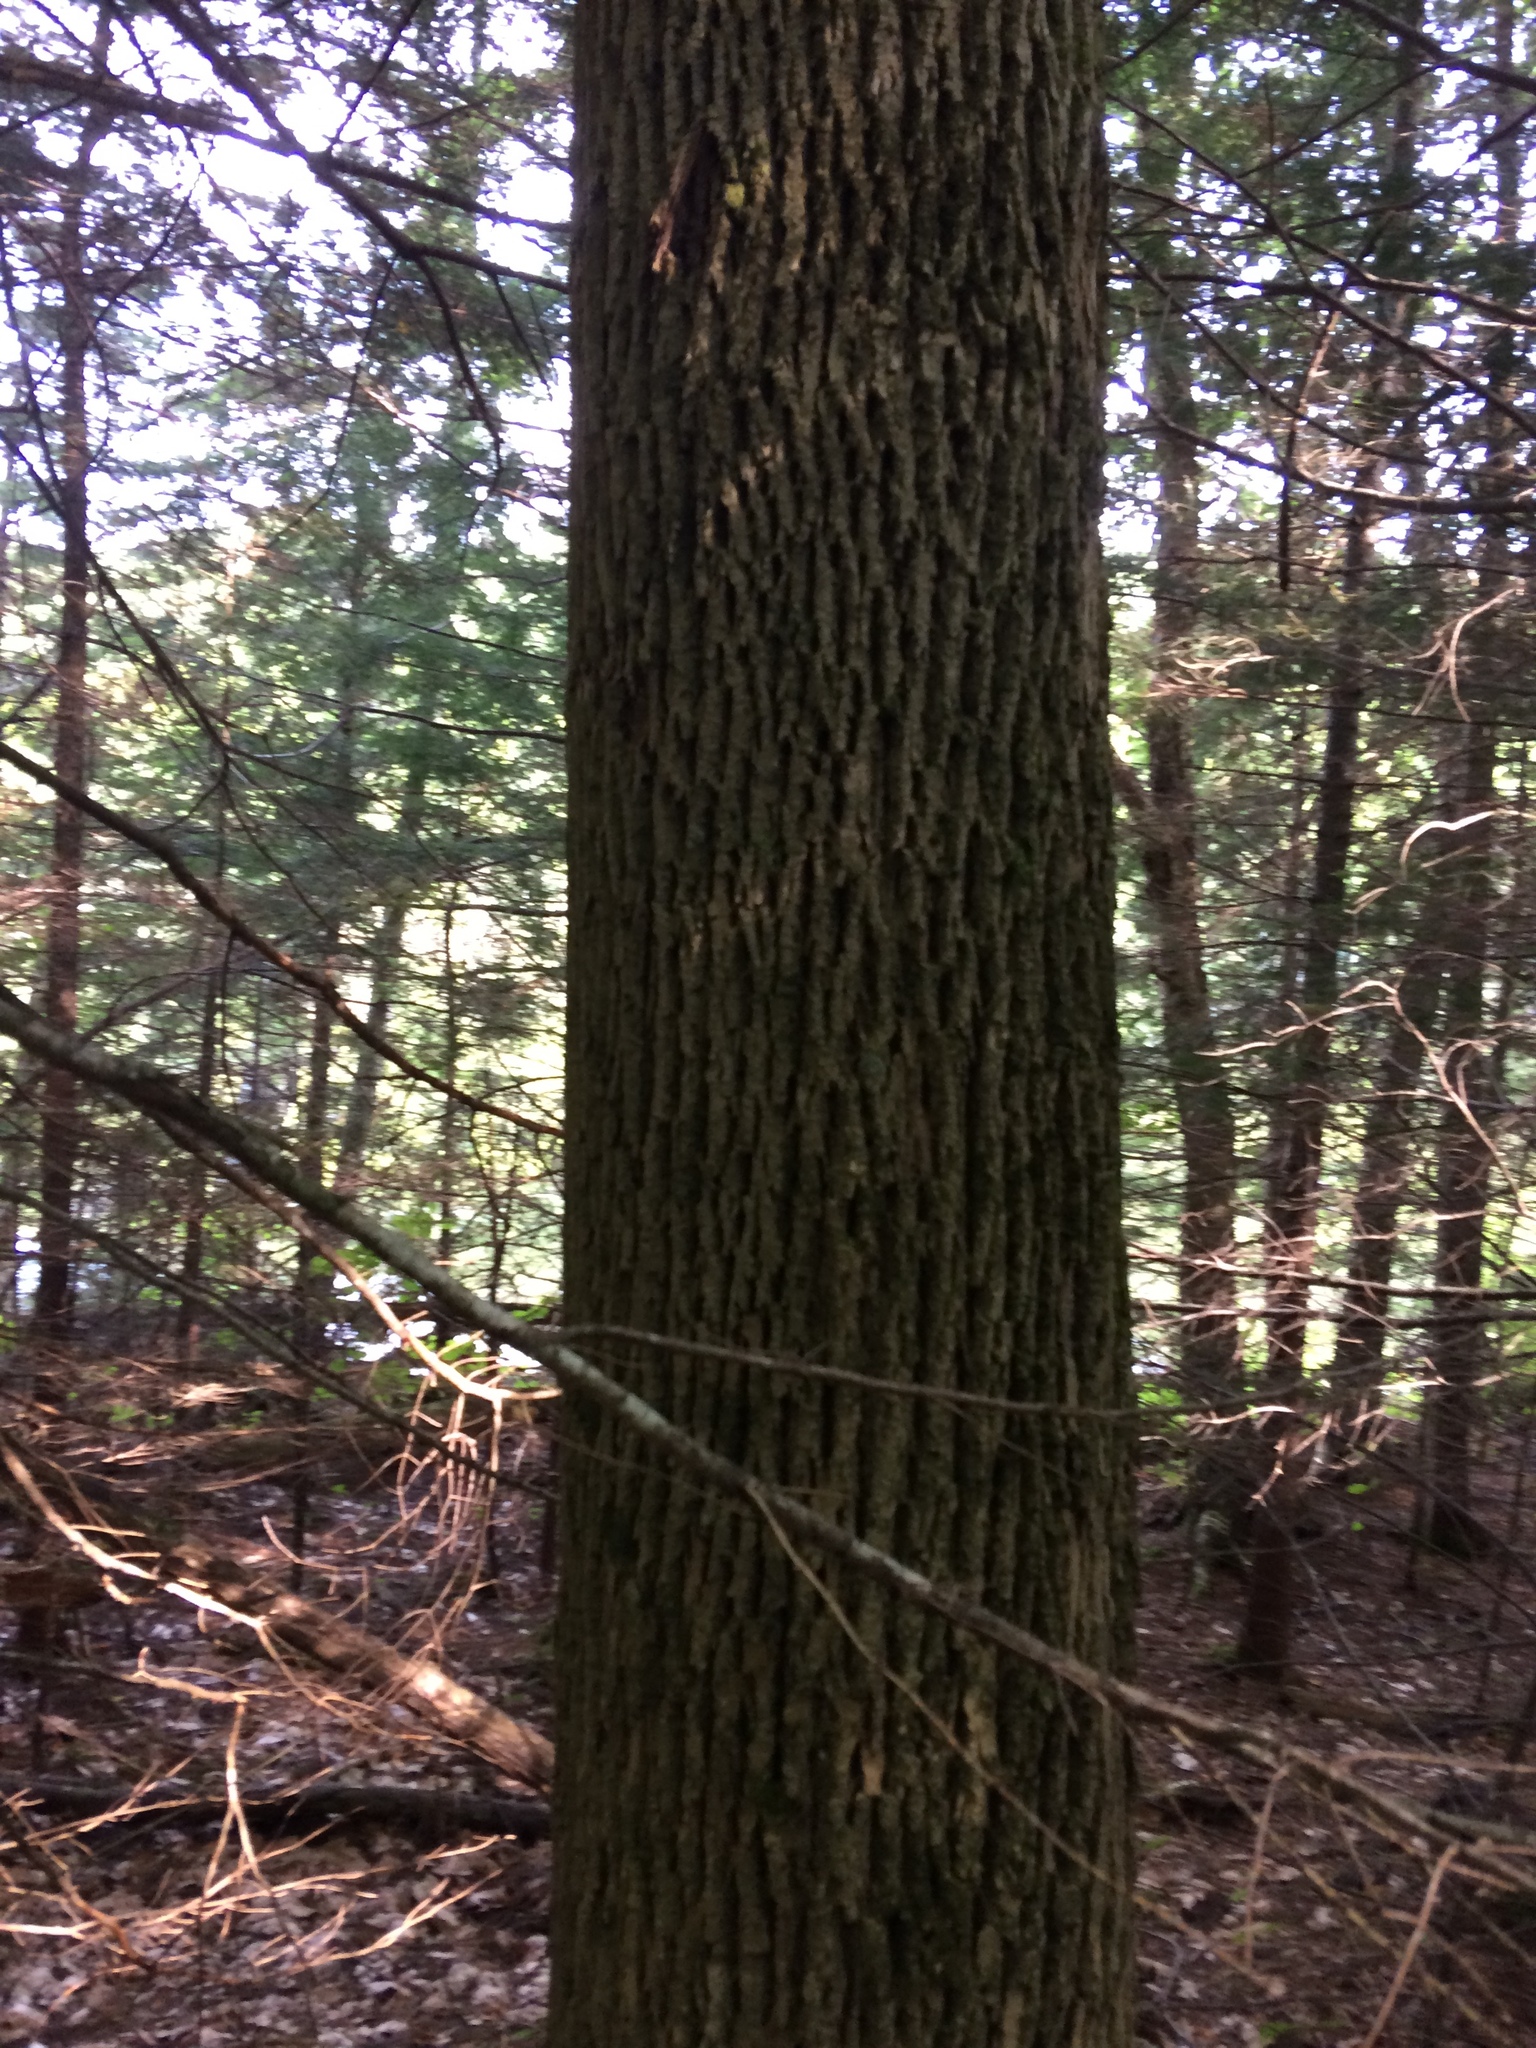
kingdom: Plantae
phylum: Tracheophyta
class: Magnoliopsida
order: Lamiales
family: Oleaceae
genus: Fraxinus
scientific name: Fraxinus americana
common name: White ash
